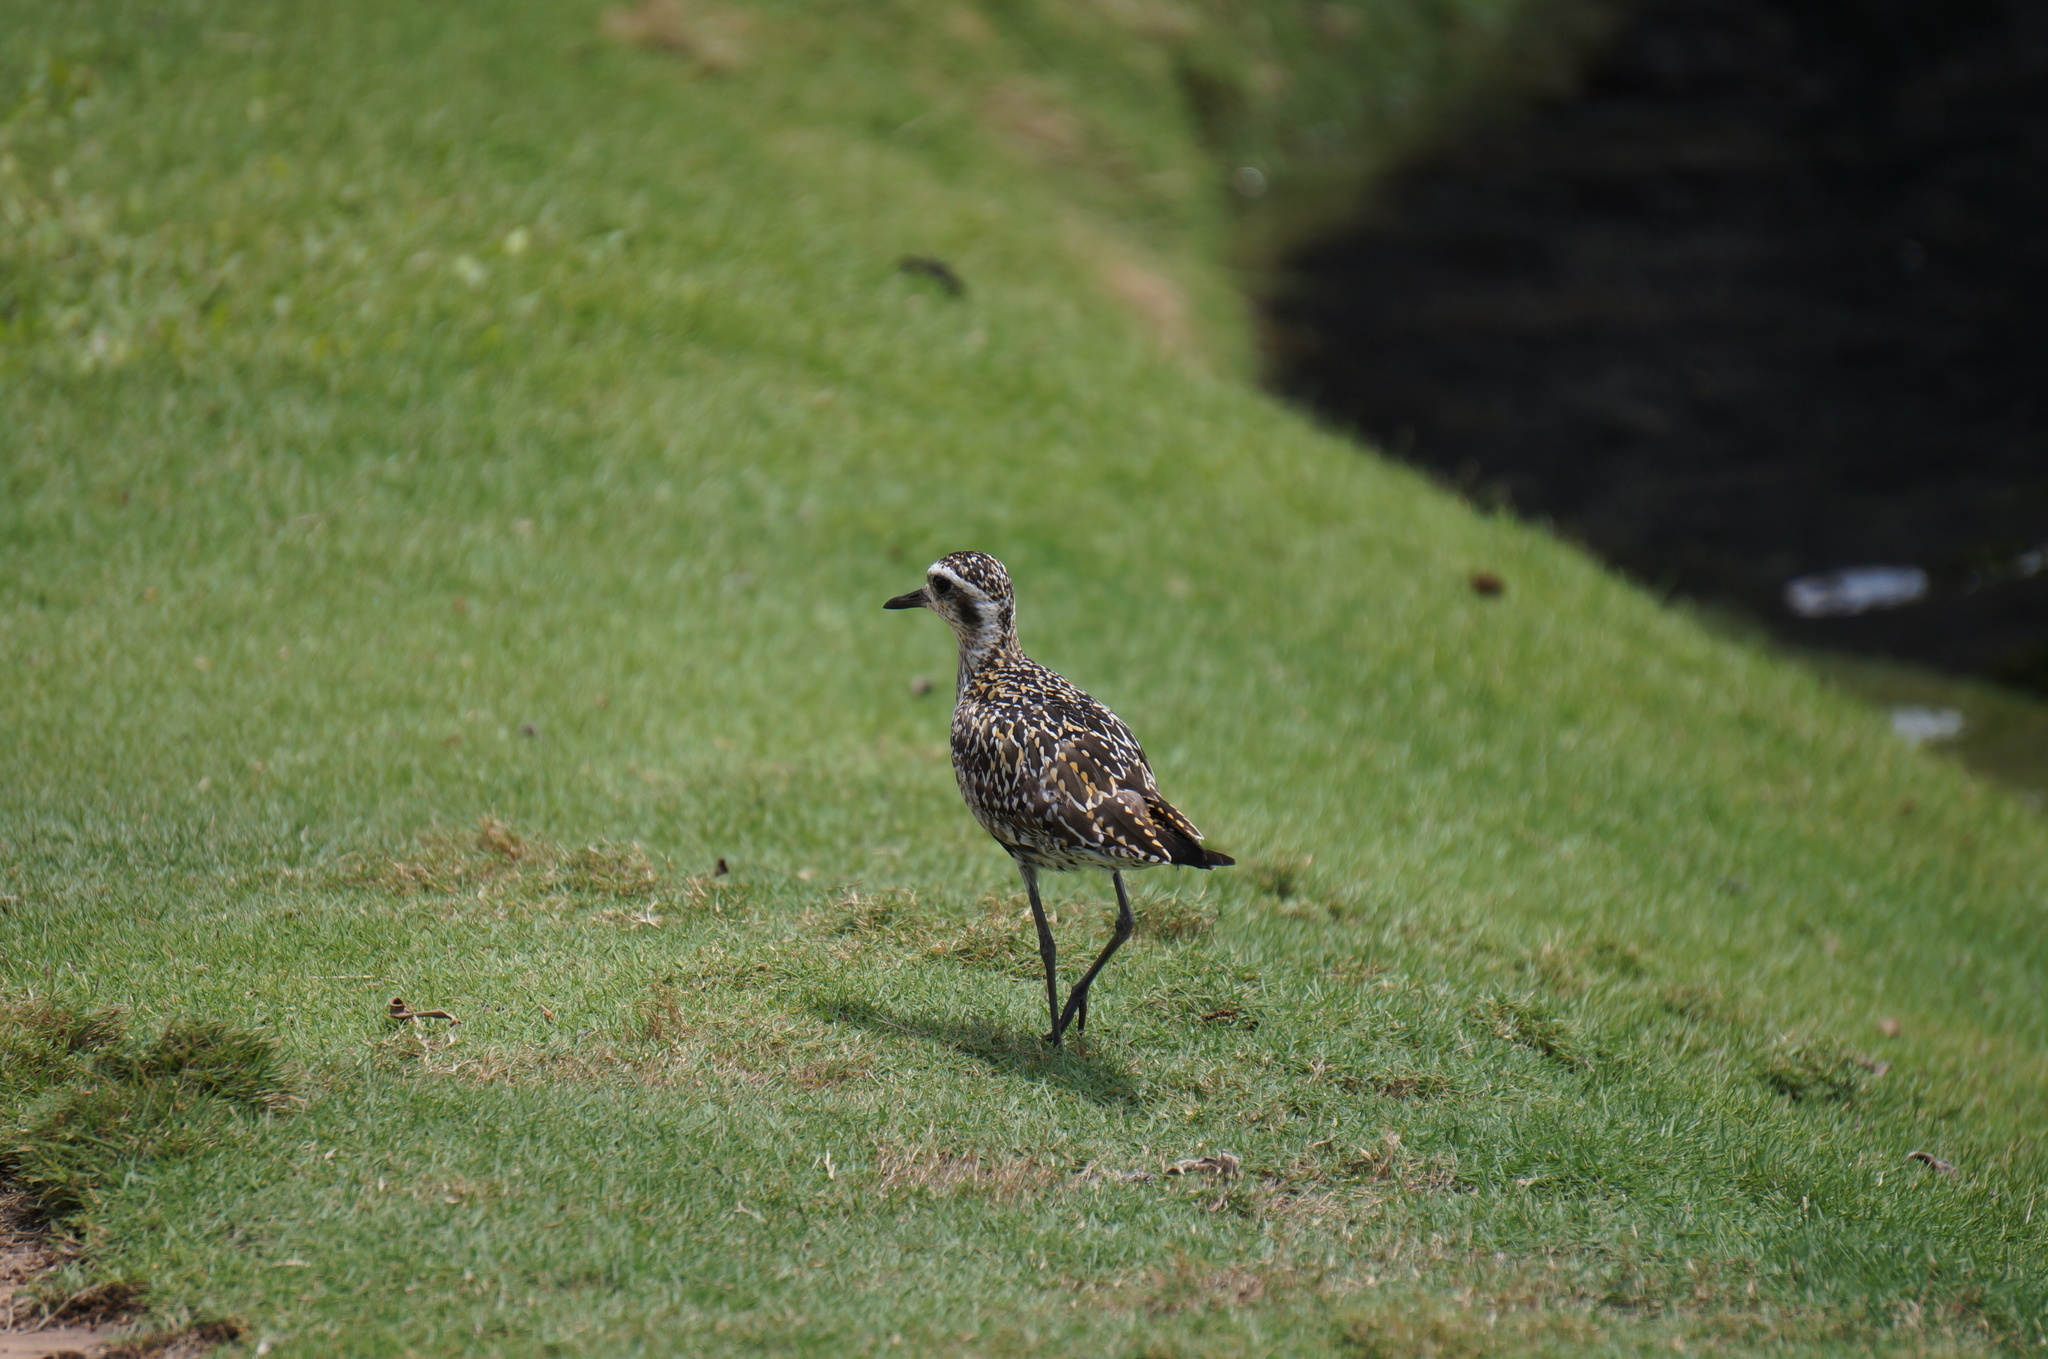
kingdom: Animalia
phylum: Chordata
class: Aves
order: Charadriiformes
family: Charadriidae
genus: Pluvialis
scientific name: Pluvialis fulva
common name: Pacific golden plover
